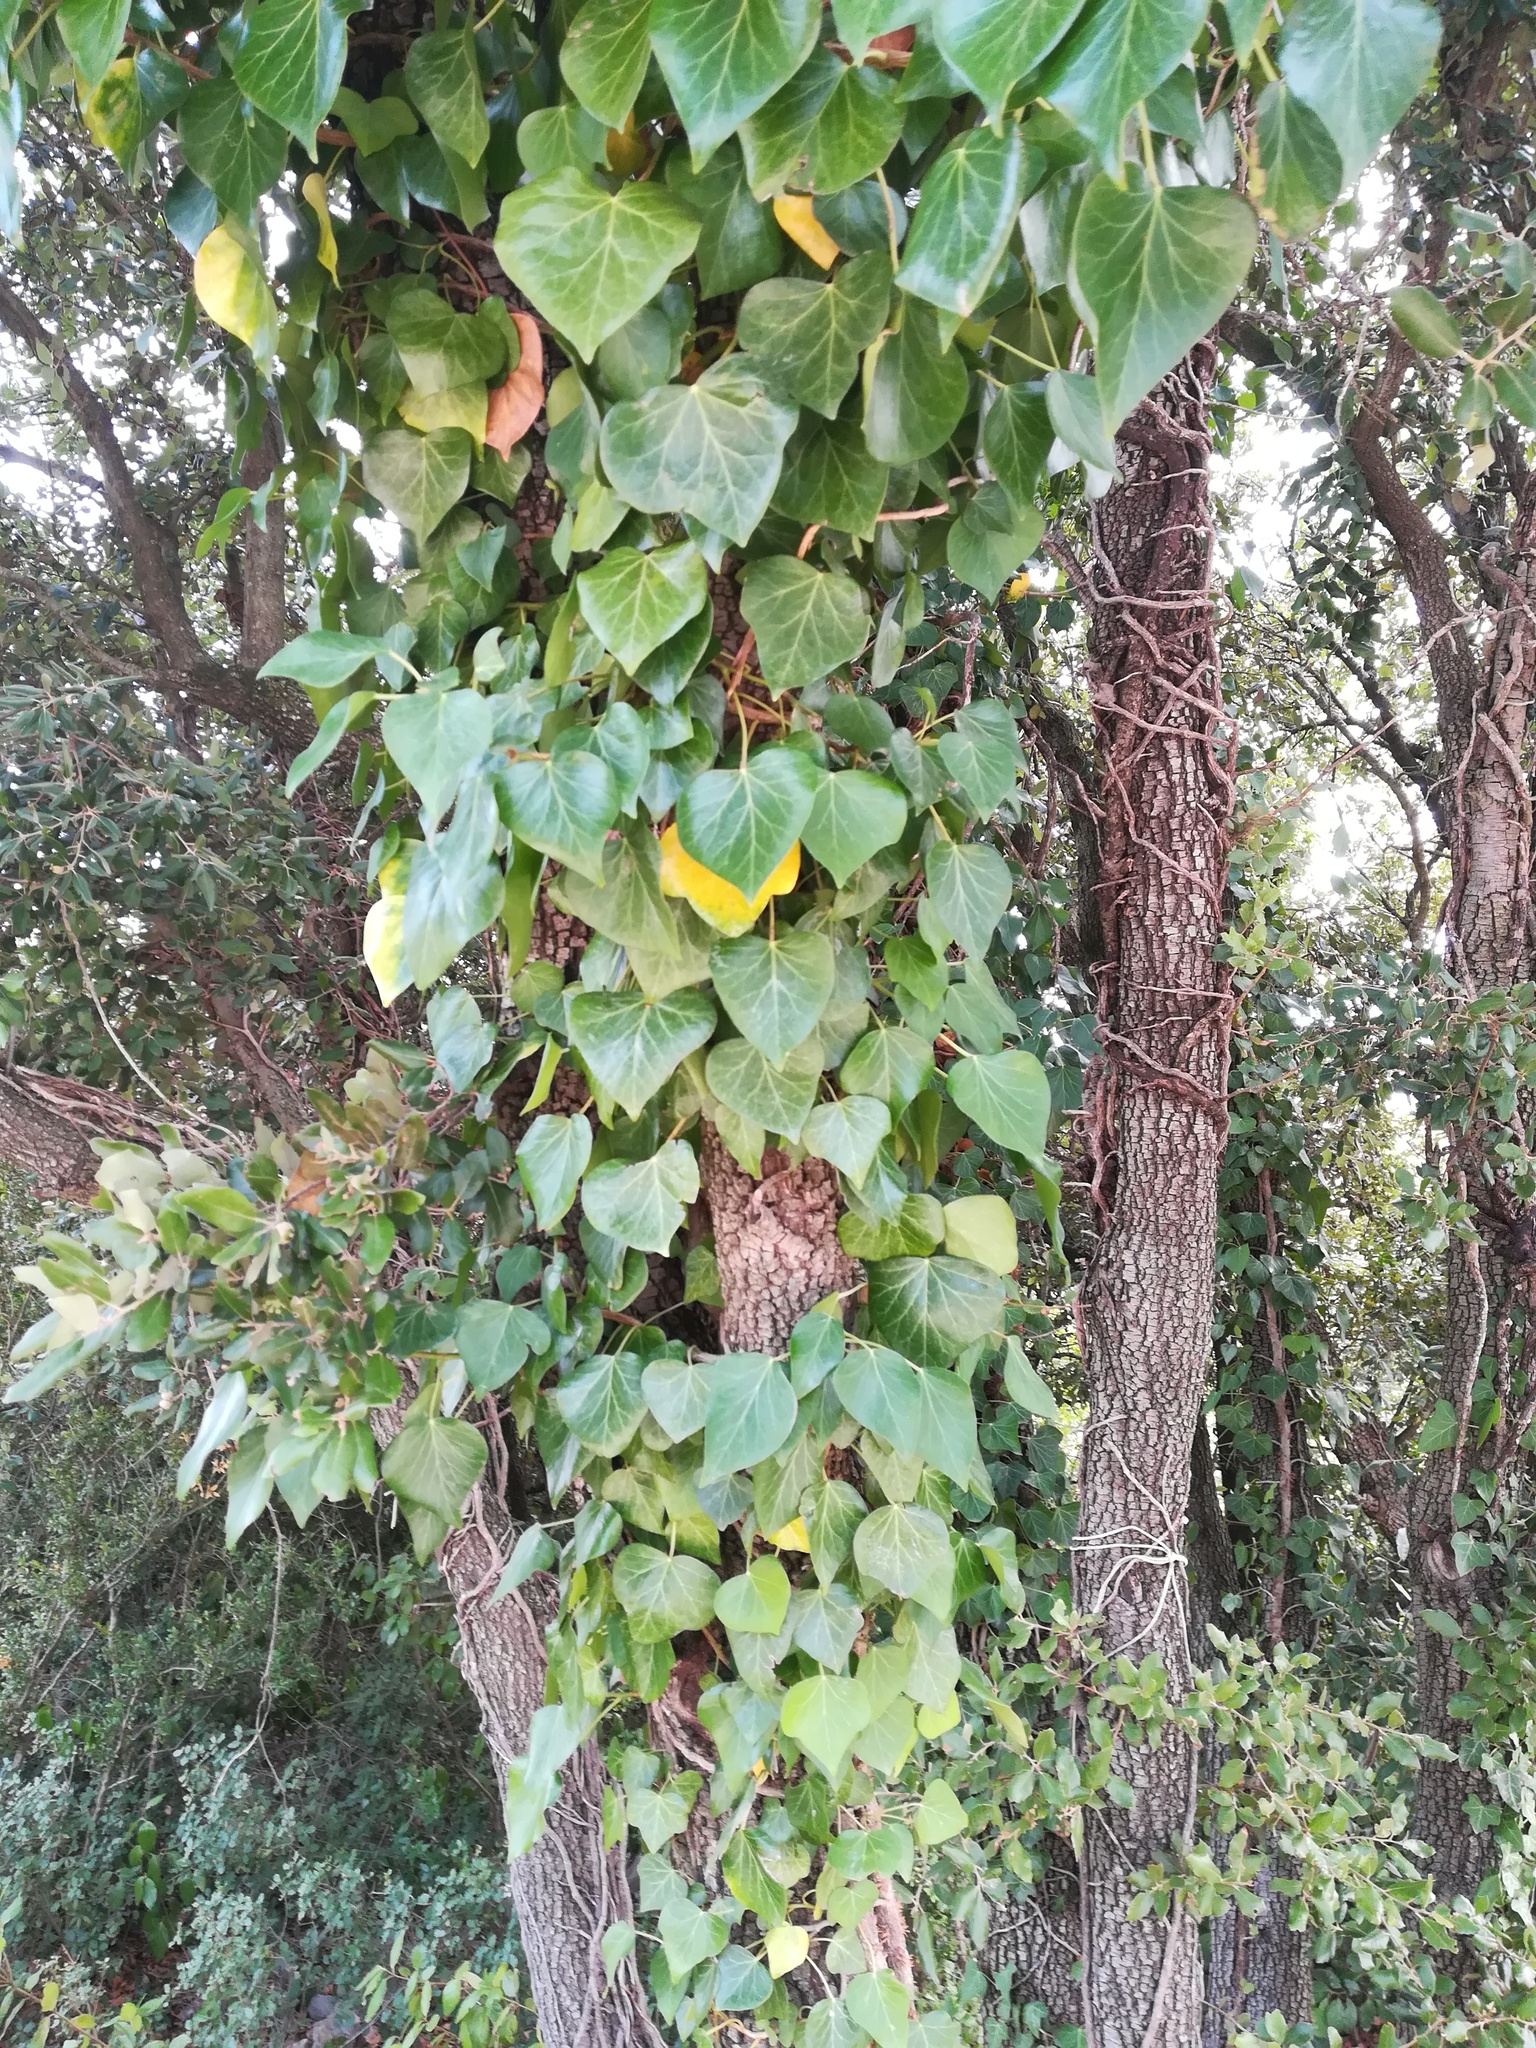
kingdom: Plantae
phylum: Tracheophyta
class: Magnoliopsida
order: Apiales
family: Araliaceae
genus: Hedera
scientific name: Hedera helix
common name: Ivy
